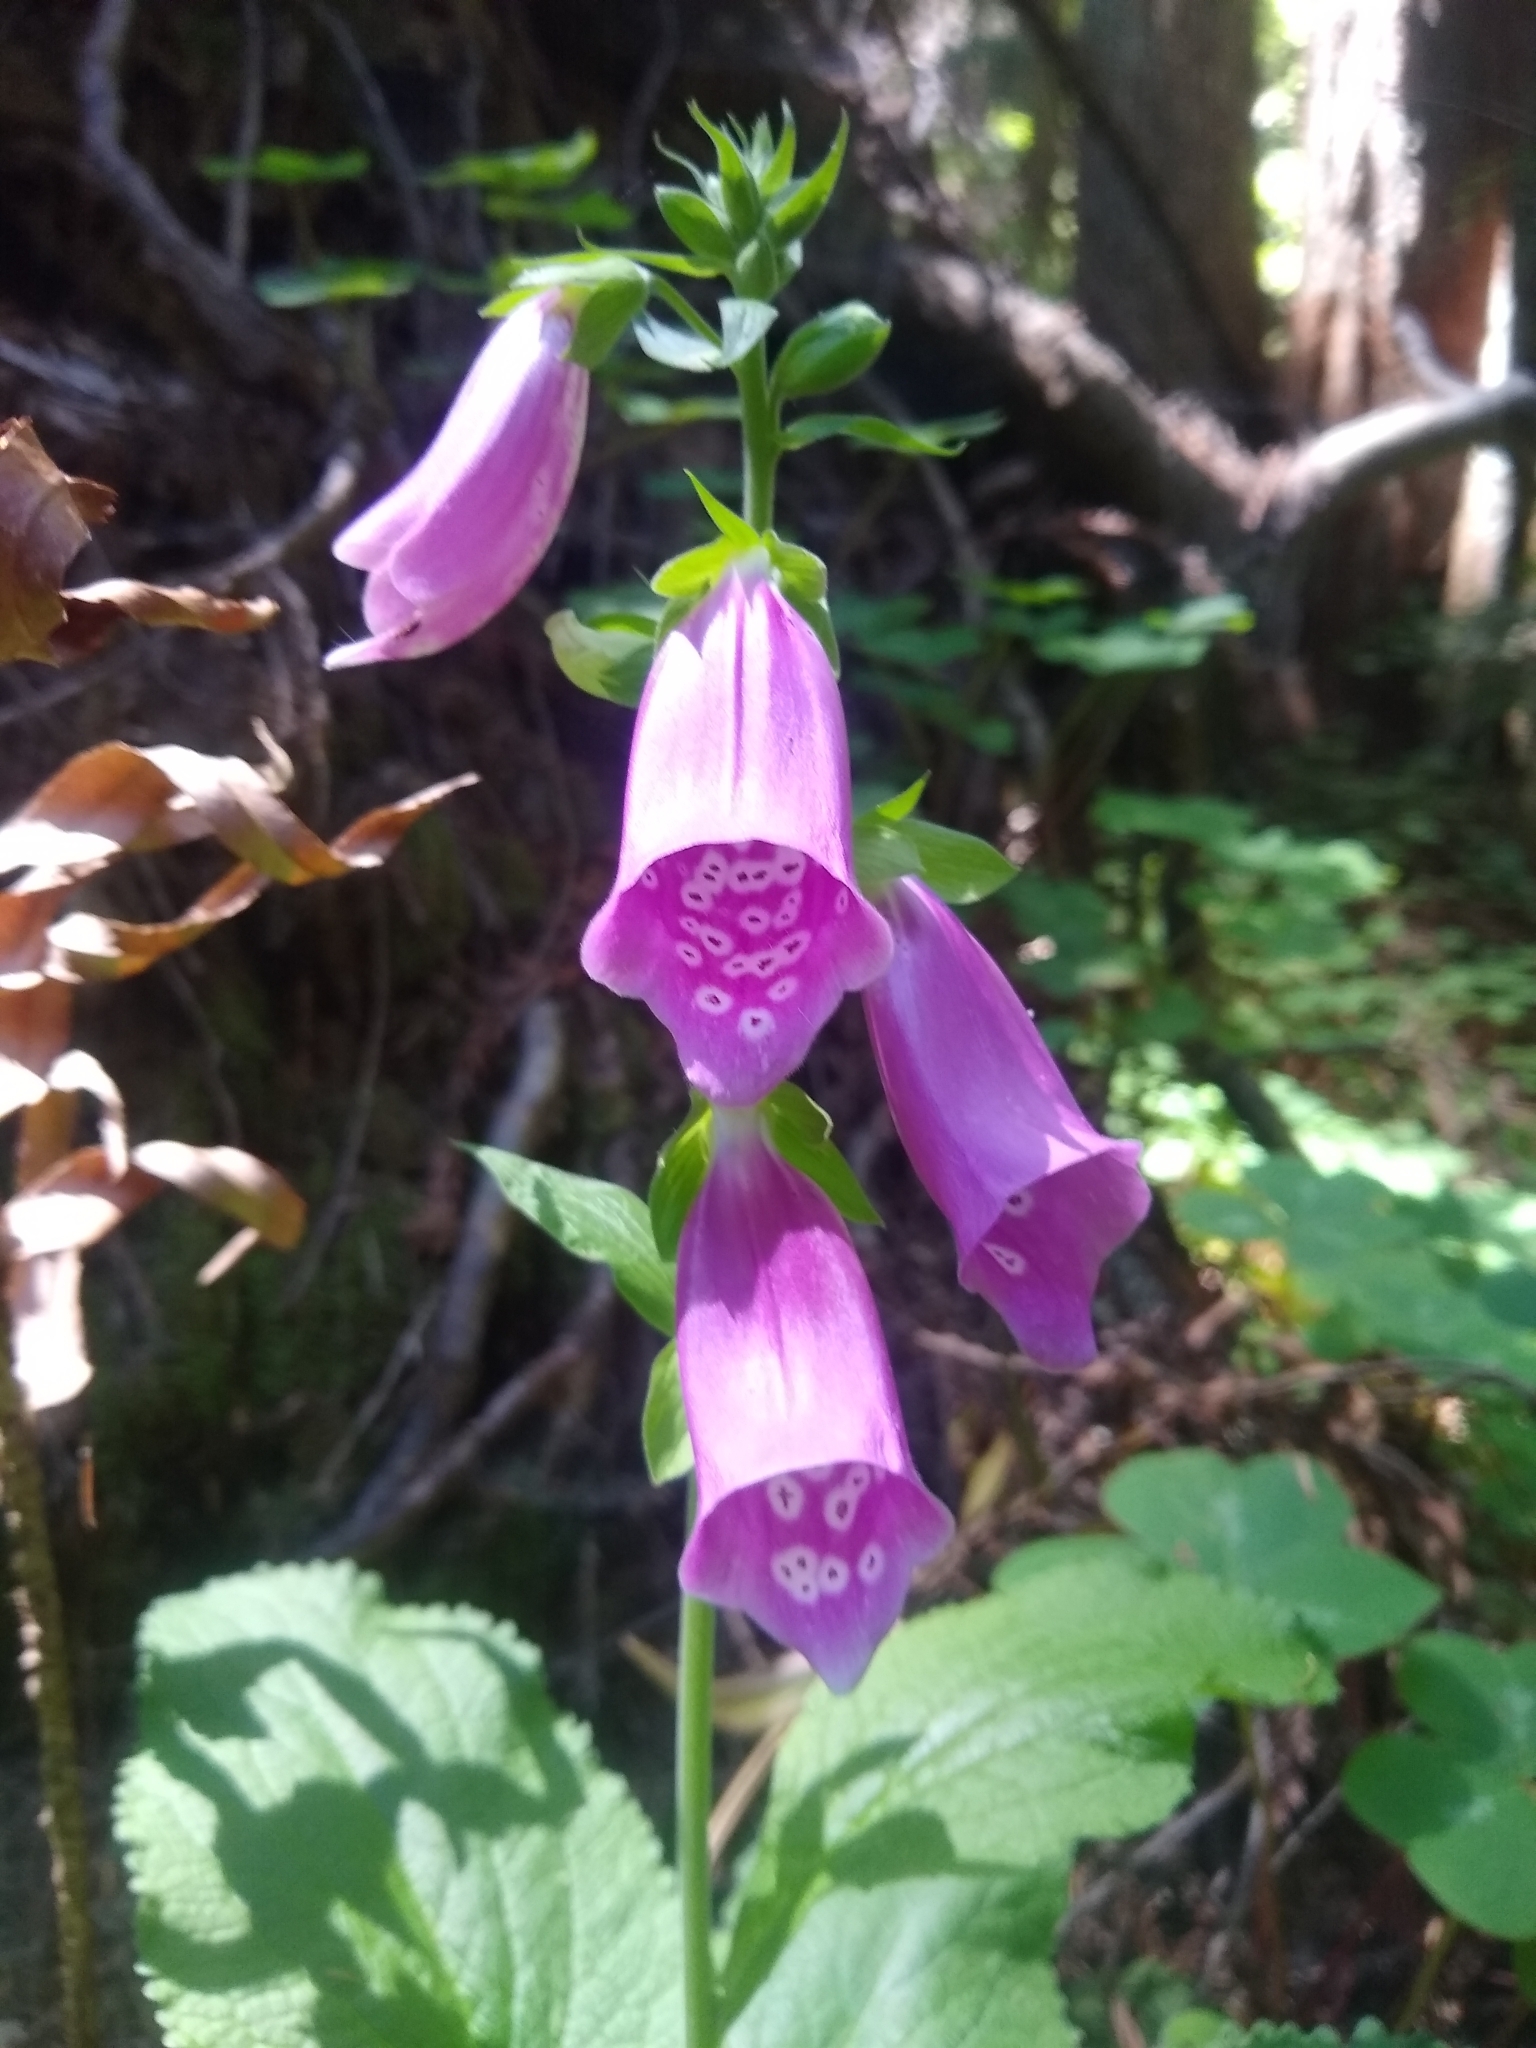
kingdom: Plantae
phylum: Tracheophyta
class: Magnoliopsida
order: Lamiales
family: Plantaginaceae
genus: Digitalis
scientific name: Digitalis purpurea
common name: Foxglove
